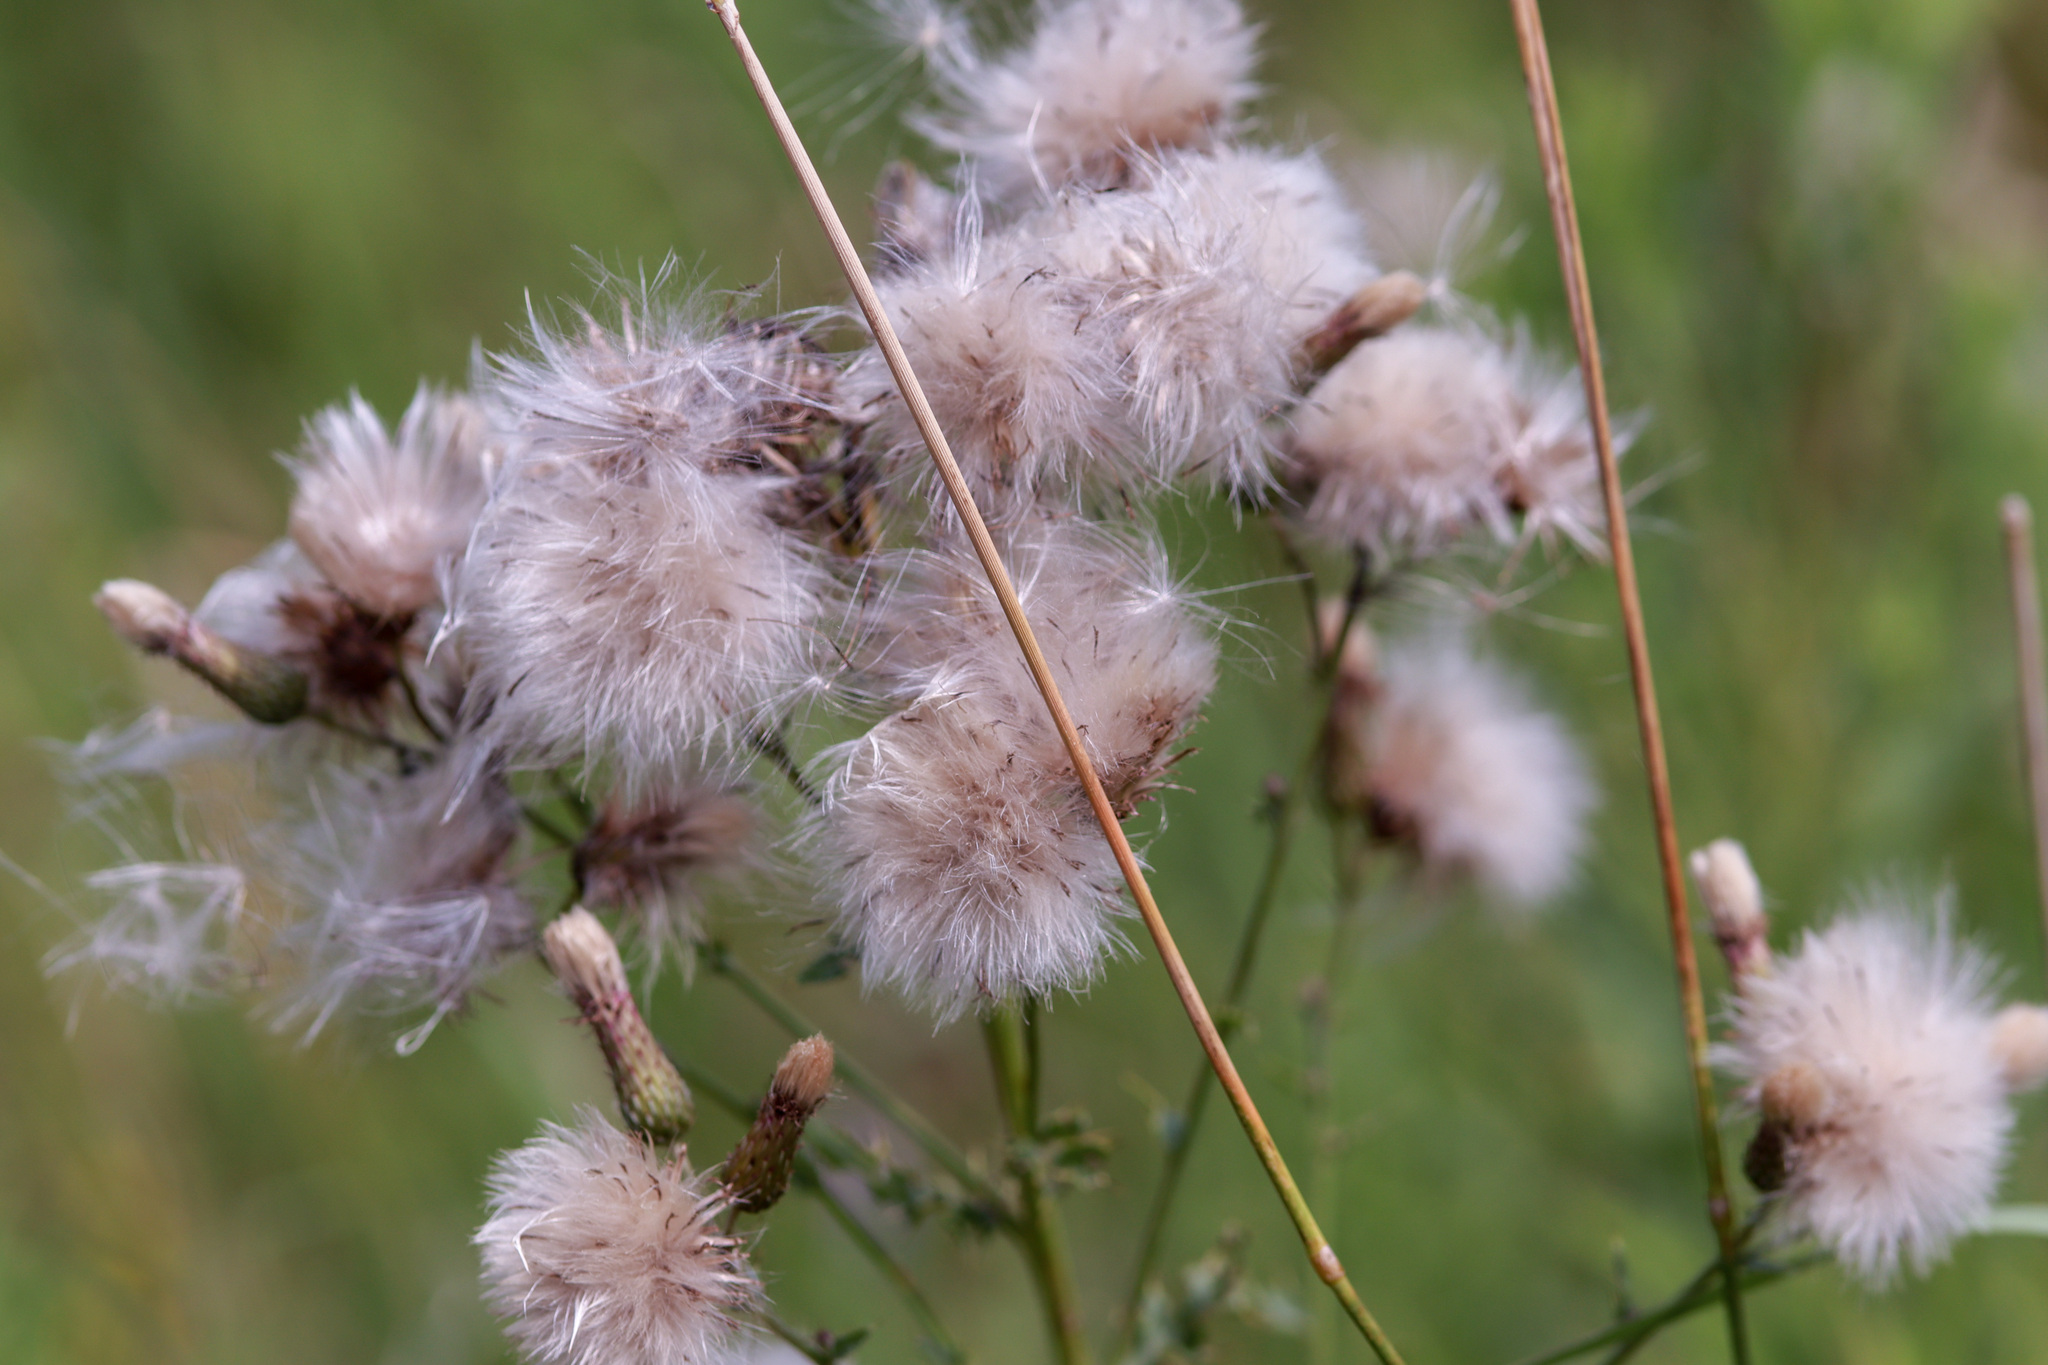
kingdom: Plantae
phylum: Tracheophyta
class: Magnoliopsida
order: Asterales
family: Asteraceae
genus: Cirsium
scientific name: Cirsium arvense
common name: Creeping thistle
